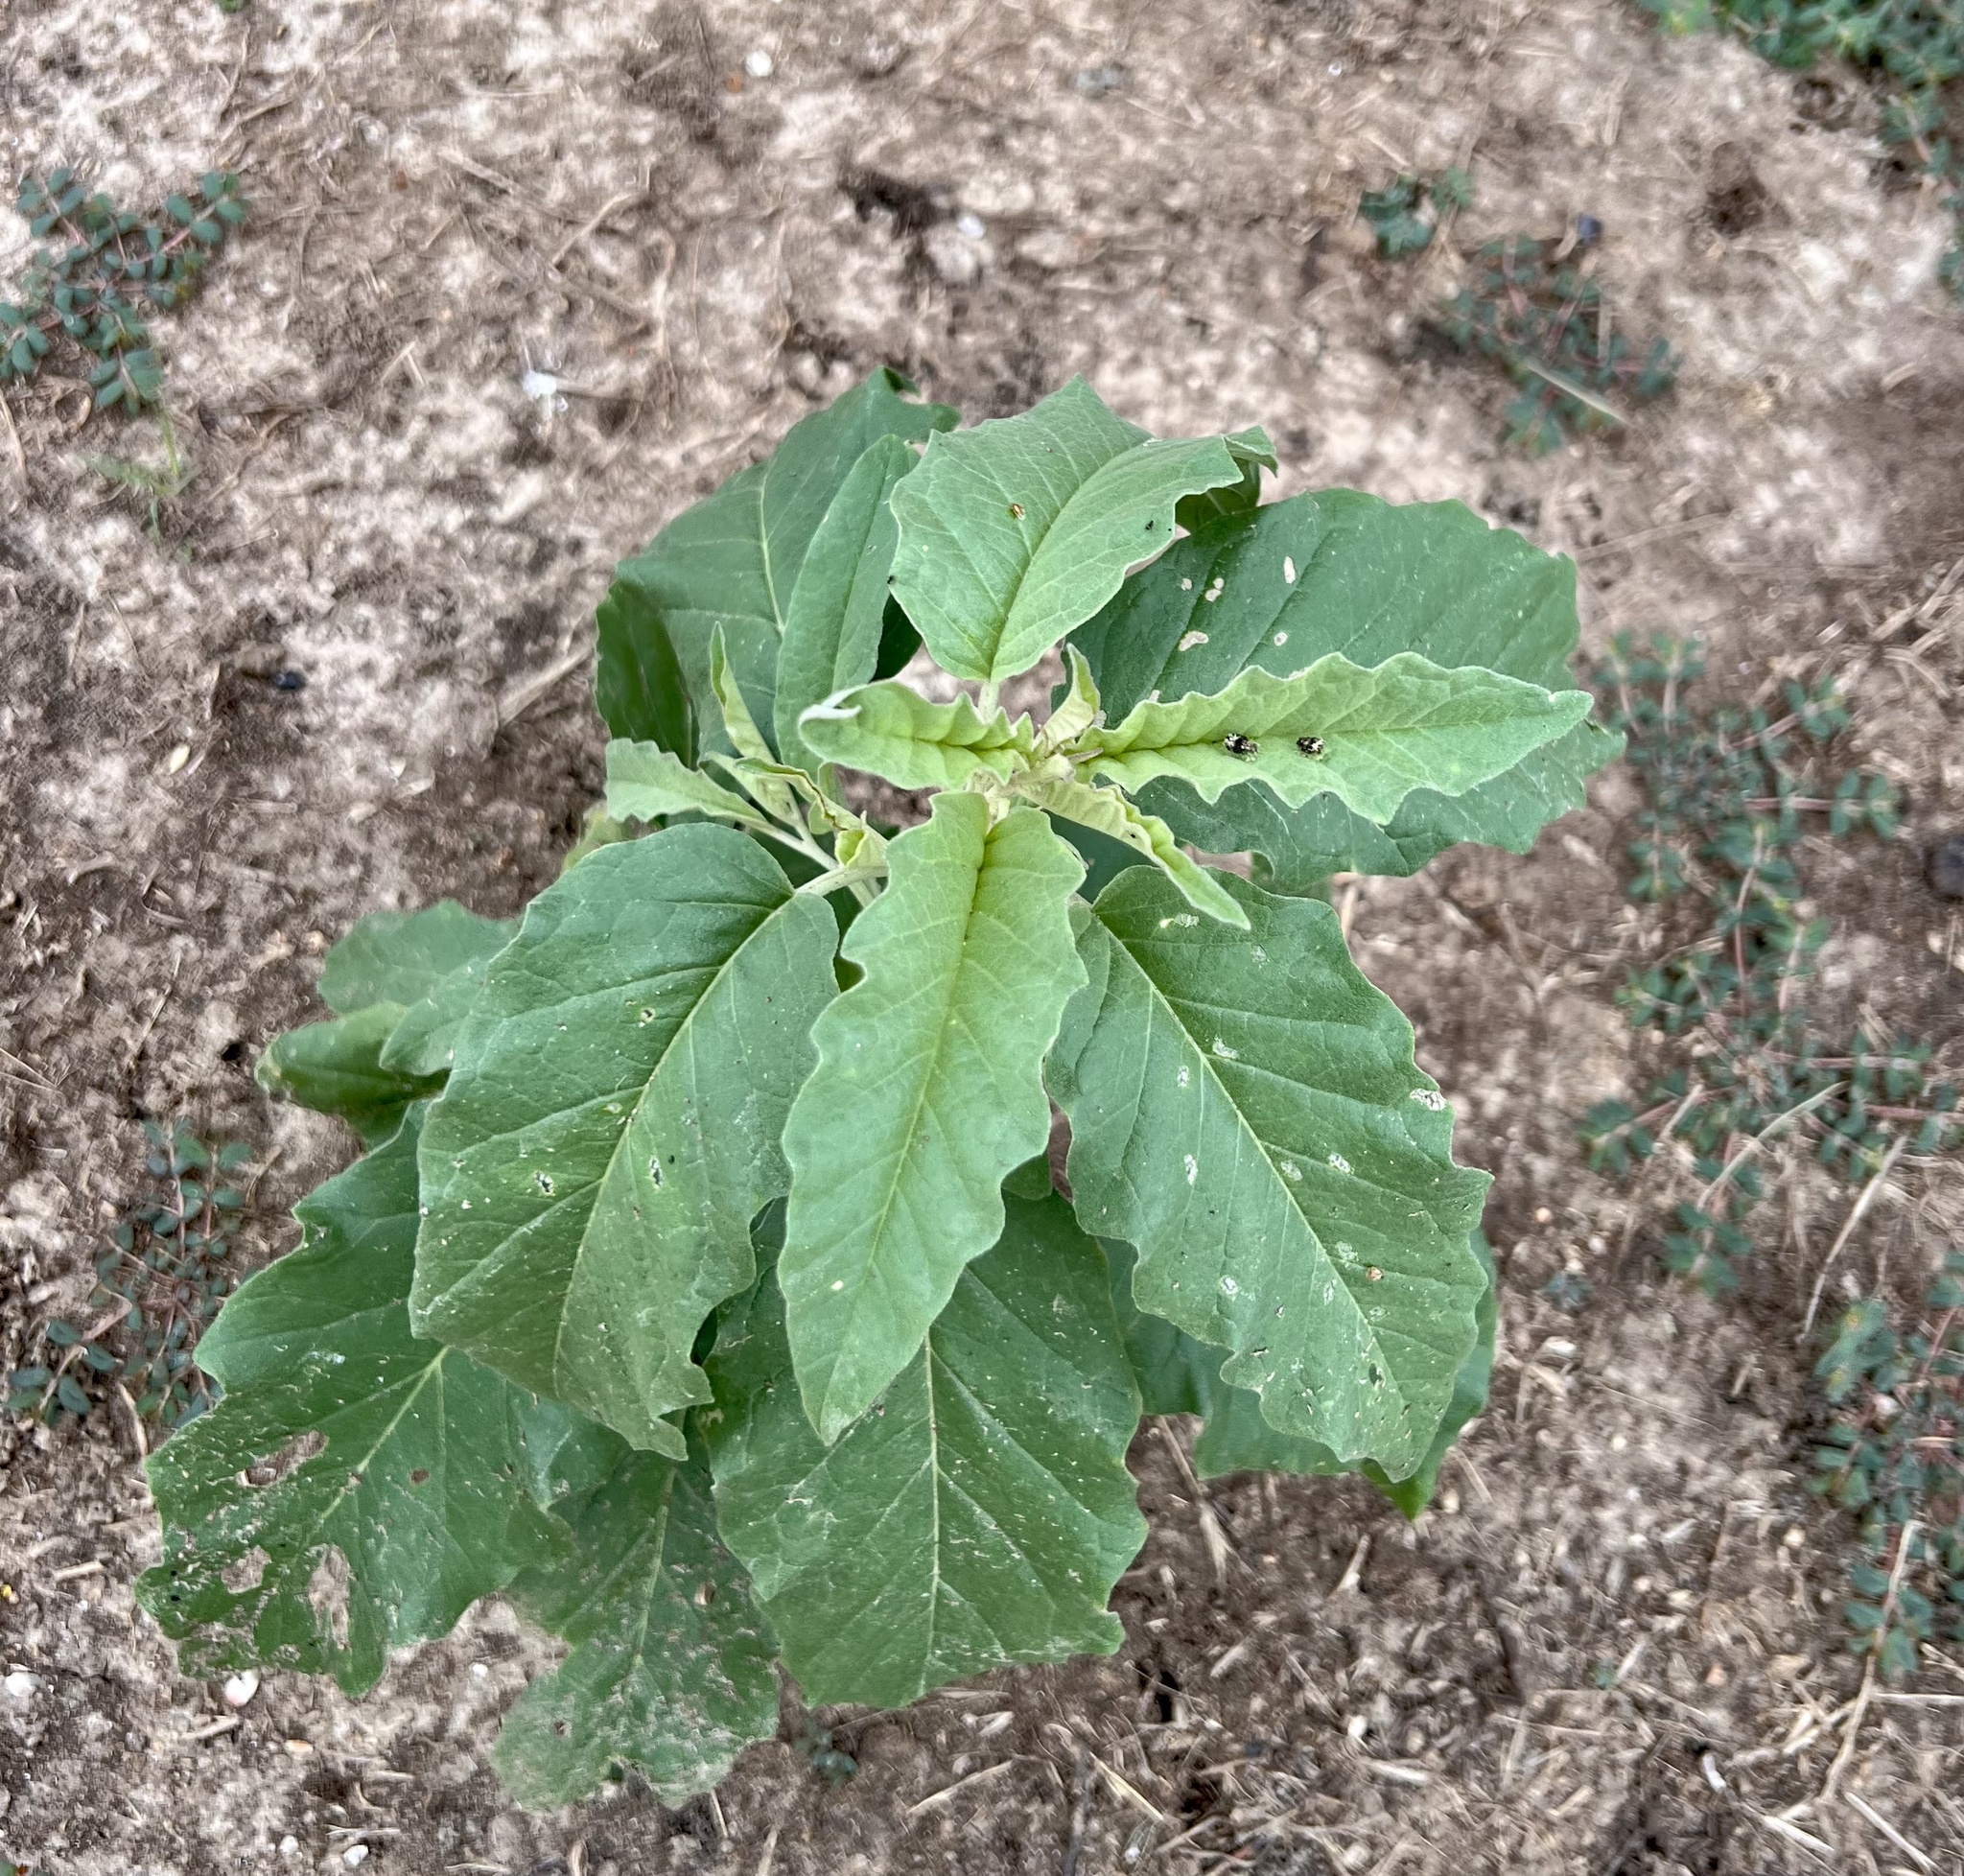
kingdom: Plantae
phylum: Tracheophyta
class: Magnoliopsida
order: Solanales
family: Solanaceae
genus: Solanum
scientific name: Solanum elaeagnifolium
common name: Silverleaf nightshade
